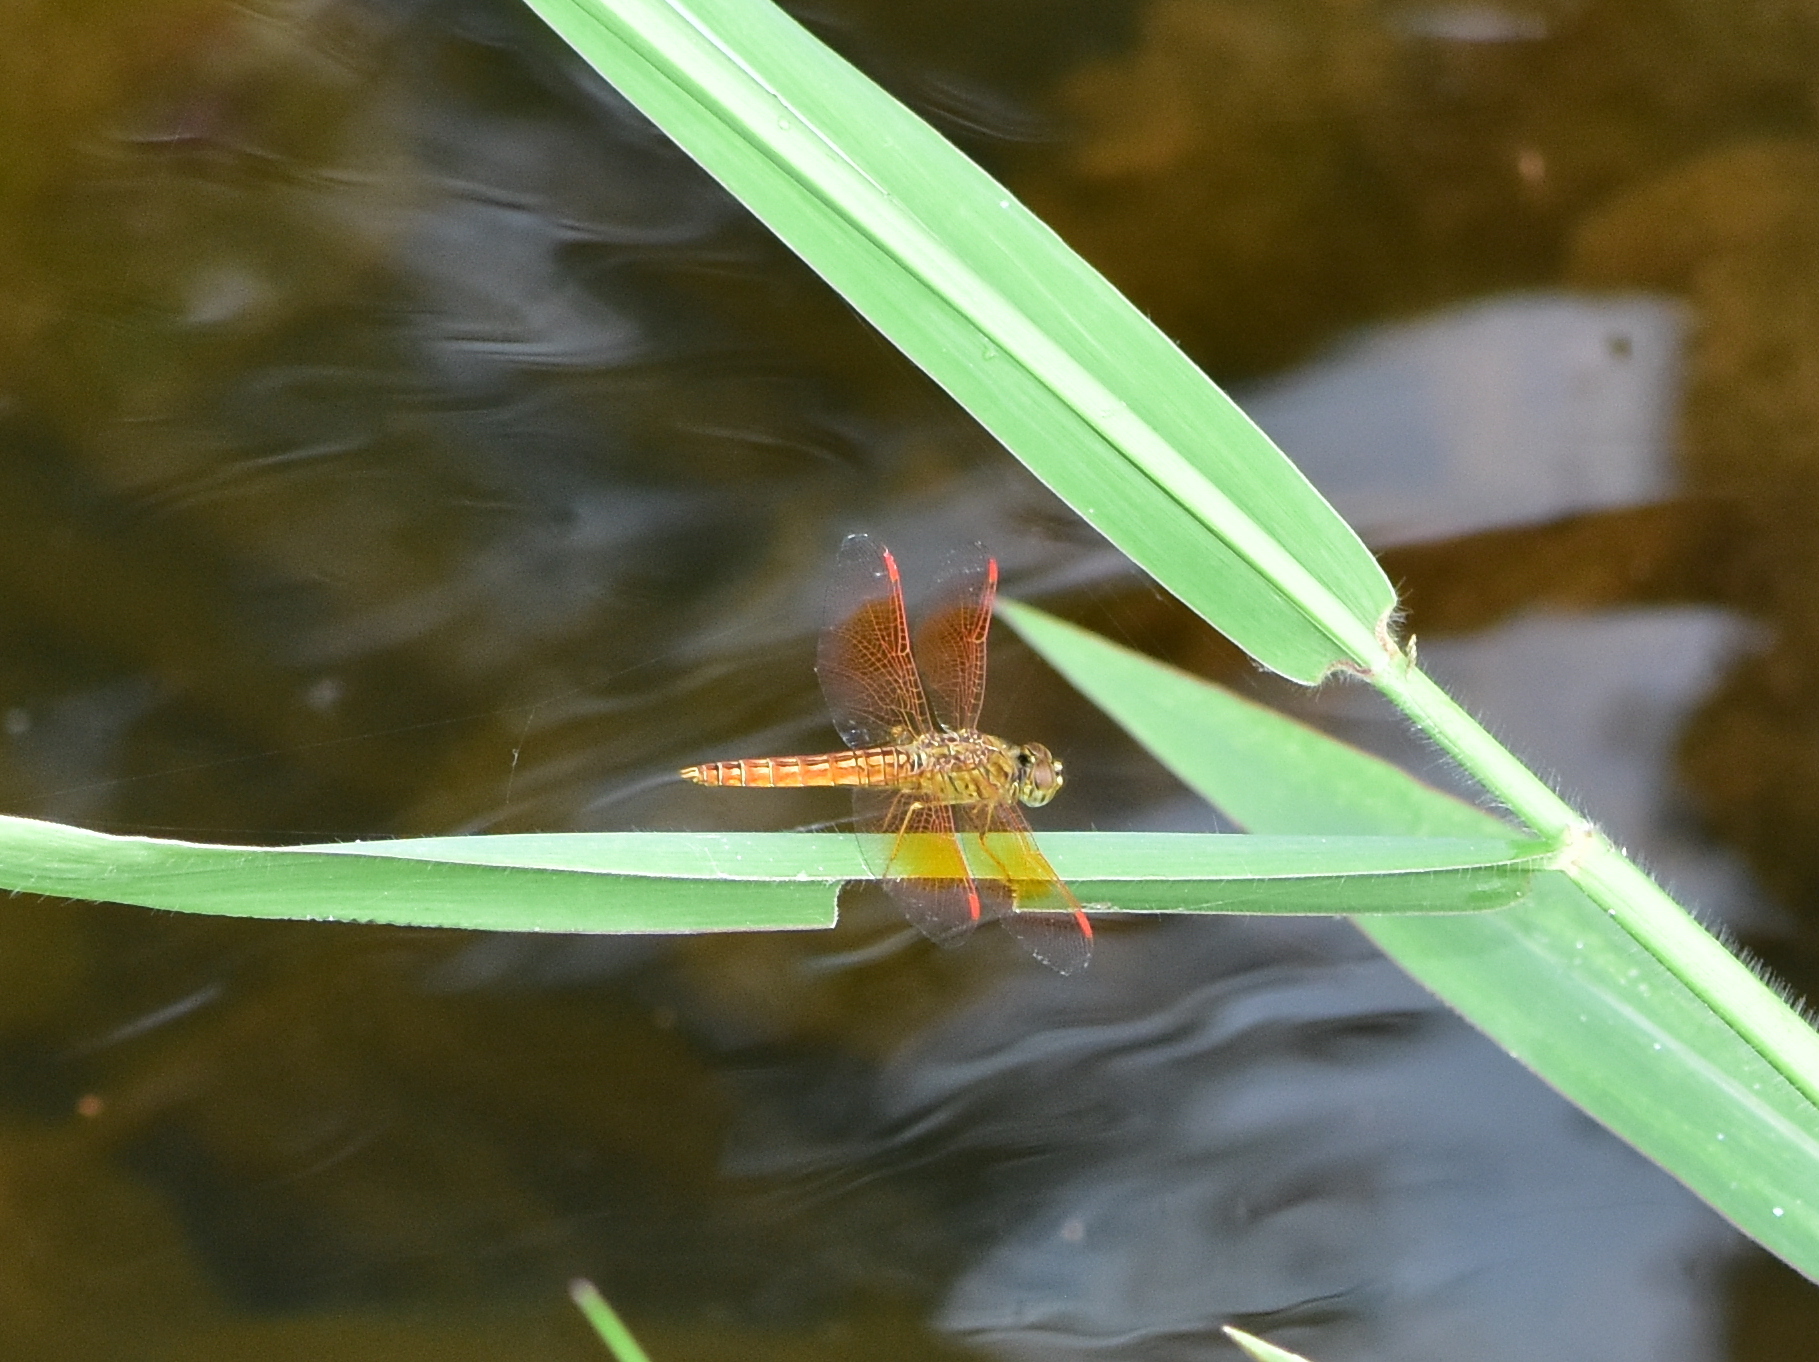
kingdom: Animalia
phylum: Arthropoda
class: Insecta
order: Odonata
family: Libellulidae
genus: Brachythemis
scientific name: Brachythemis contaminata
